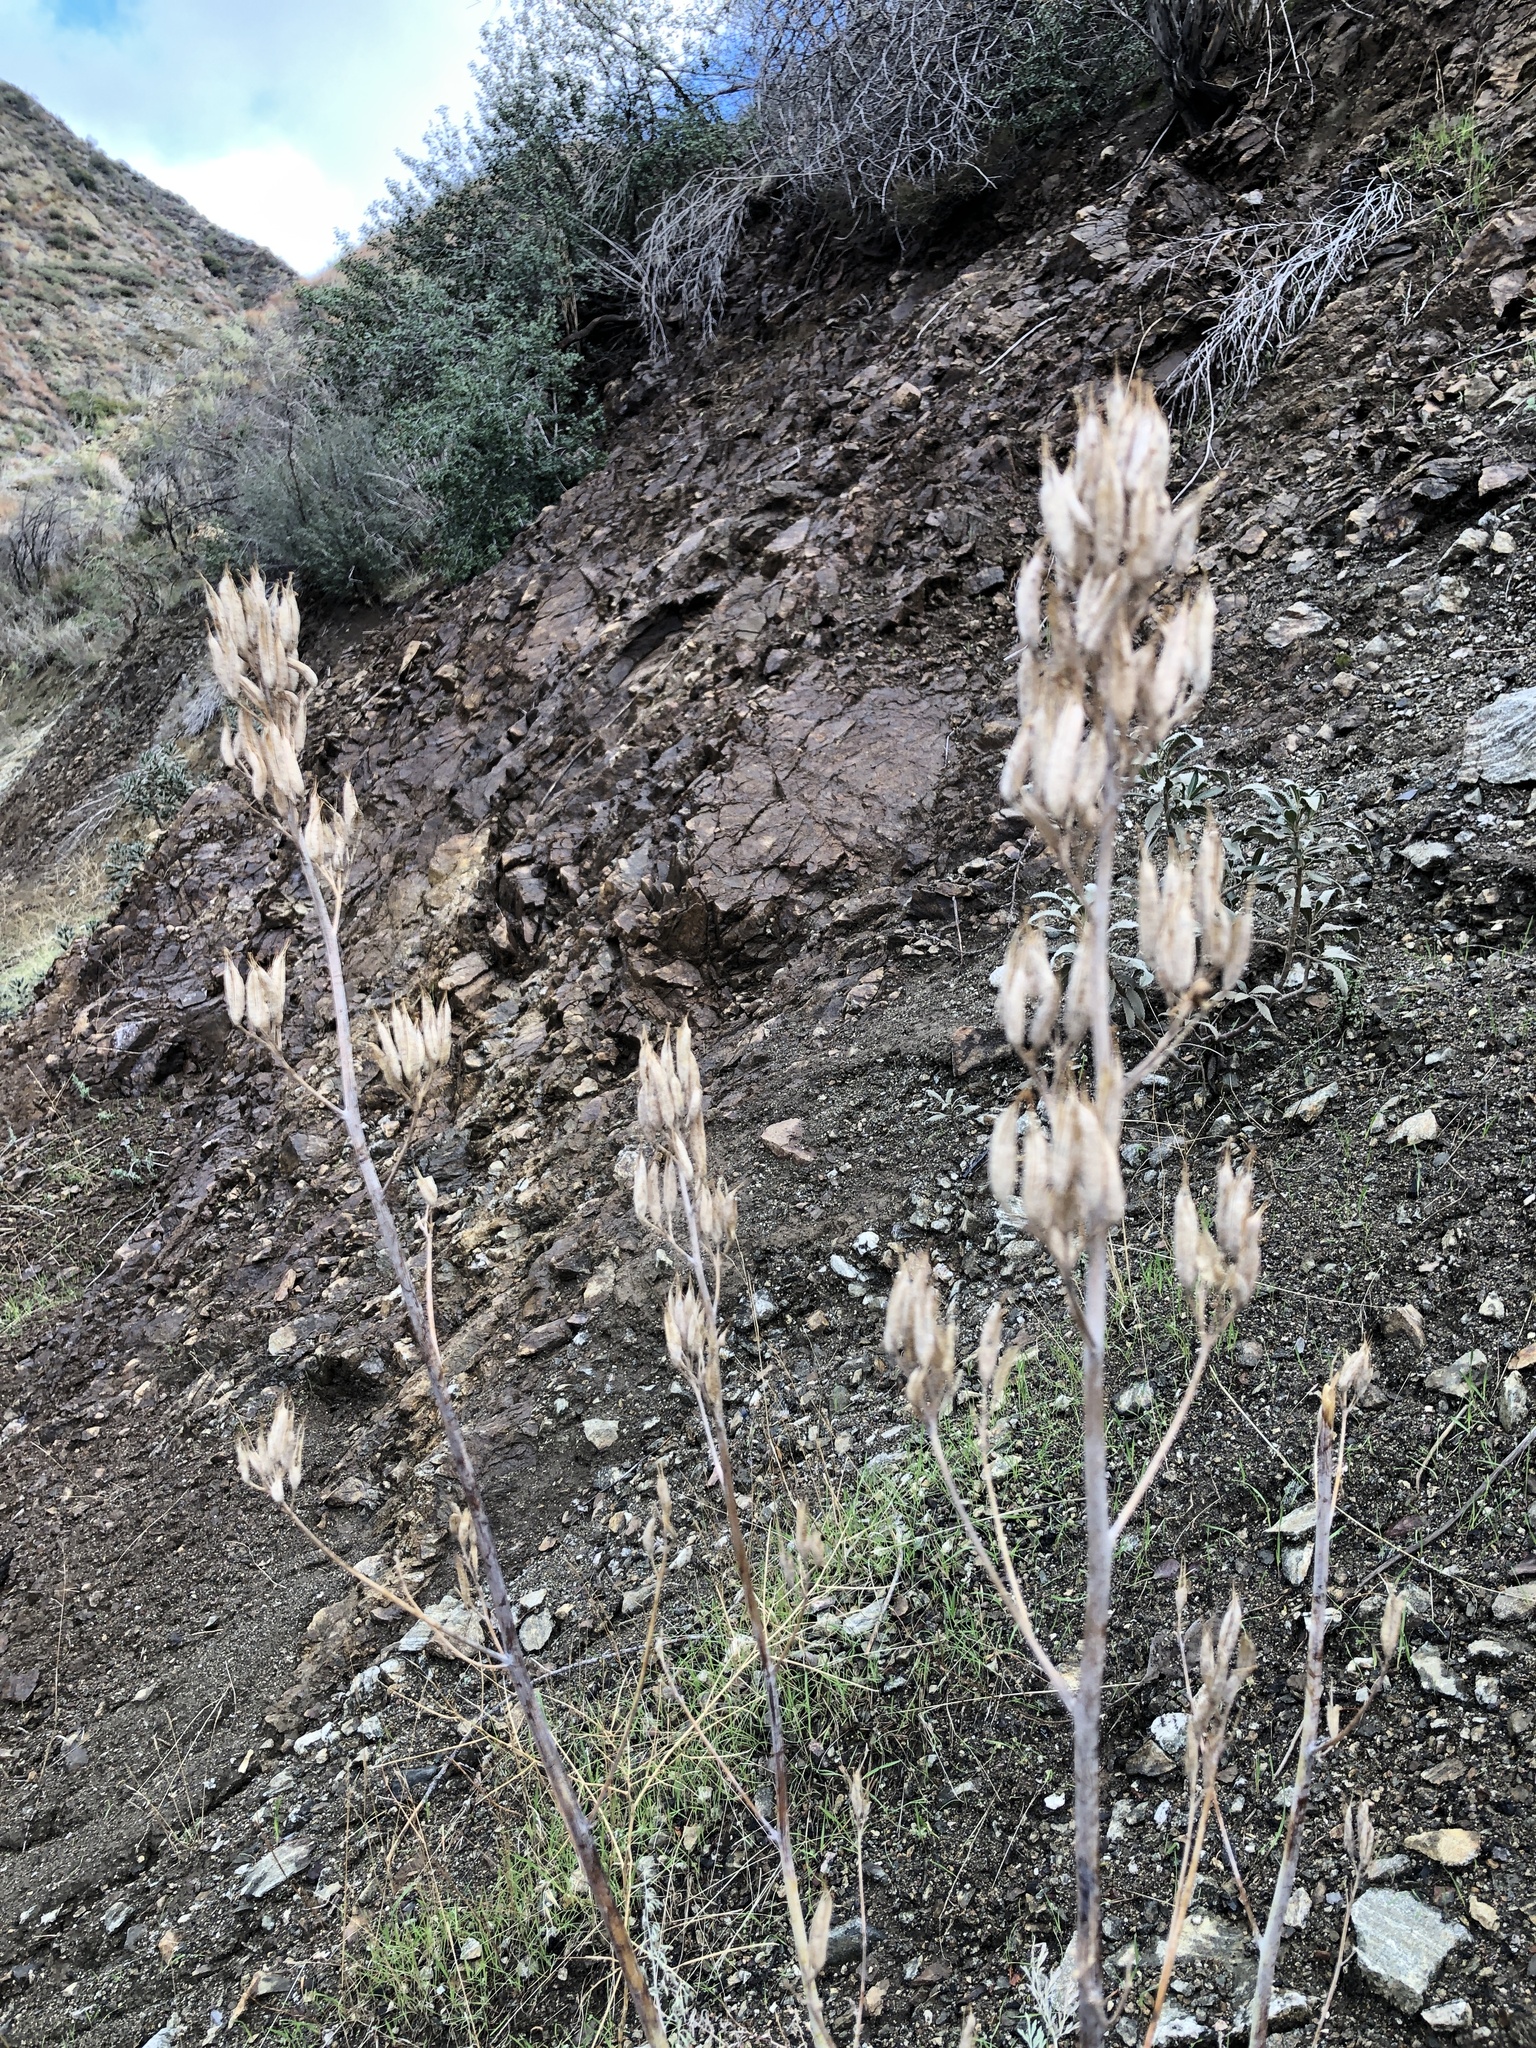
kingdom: Plantae
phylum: Tracheophyta
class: Magnoliopsida
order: Ranunculales
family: Papaveraceae
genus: Ehrendorferia
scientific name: Ehrendorferia chrysantha
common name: Golden eardrops
